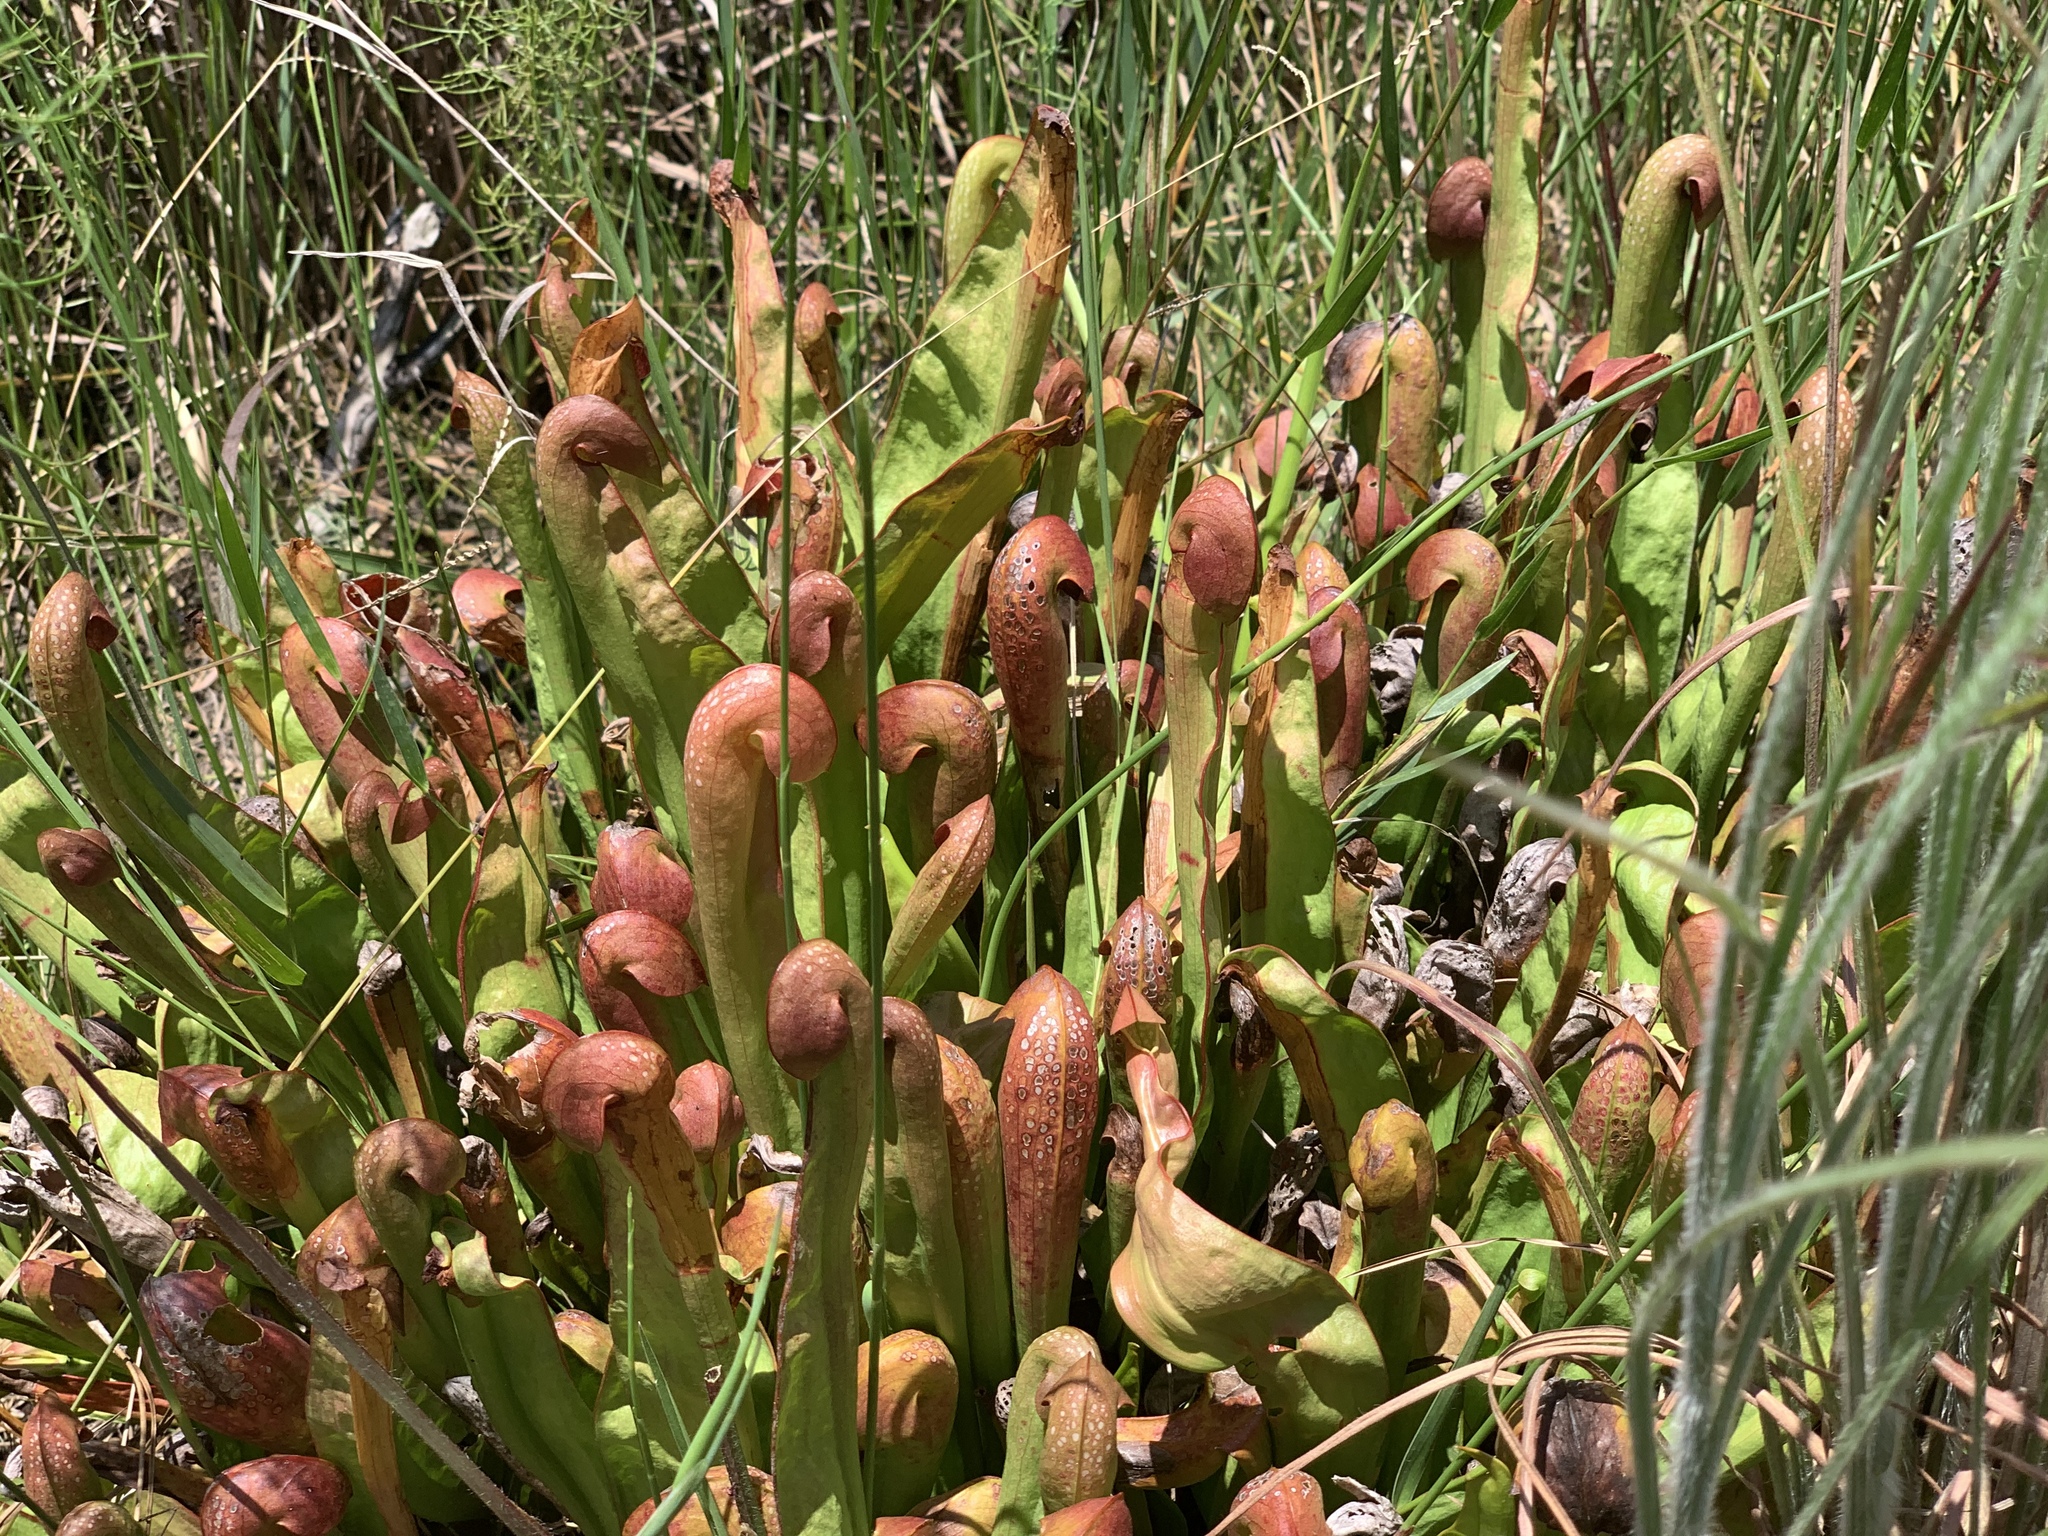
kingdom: Plantae
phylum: Tracheophyta
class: Magnoliopsida
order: Ericales
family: Sarraceniaceae
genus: Sarracenia
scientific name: Sarracenia minor
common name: Rainhat-trumpet
